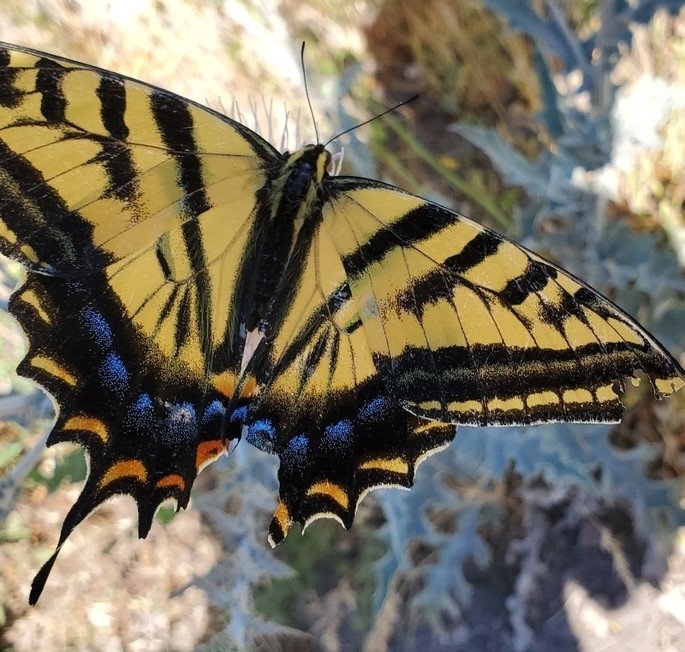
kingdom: Animalia
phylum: Arthropoda
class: Insecta
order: Lepidoptera
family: Papilionidae
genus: Papilio
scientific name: Papilio multicaudata
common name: Two-tailed tiger swallowtail
